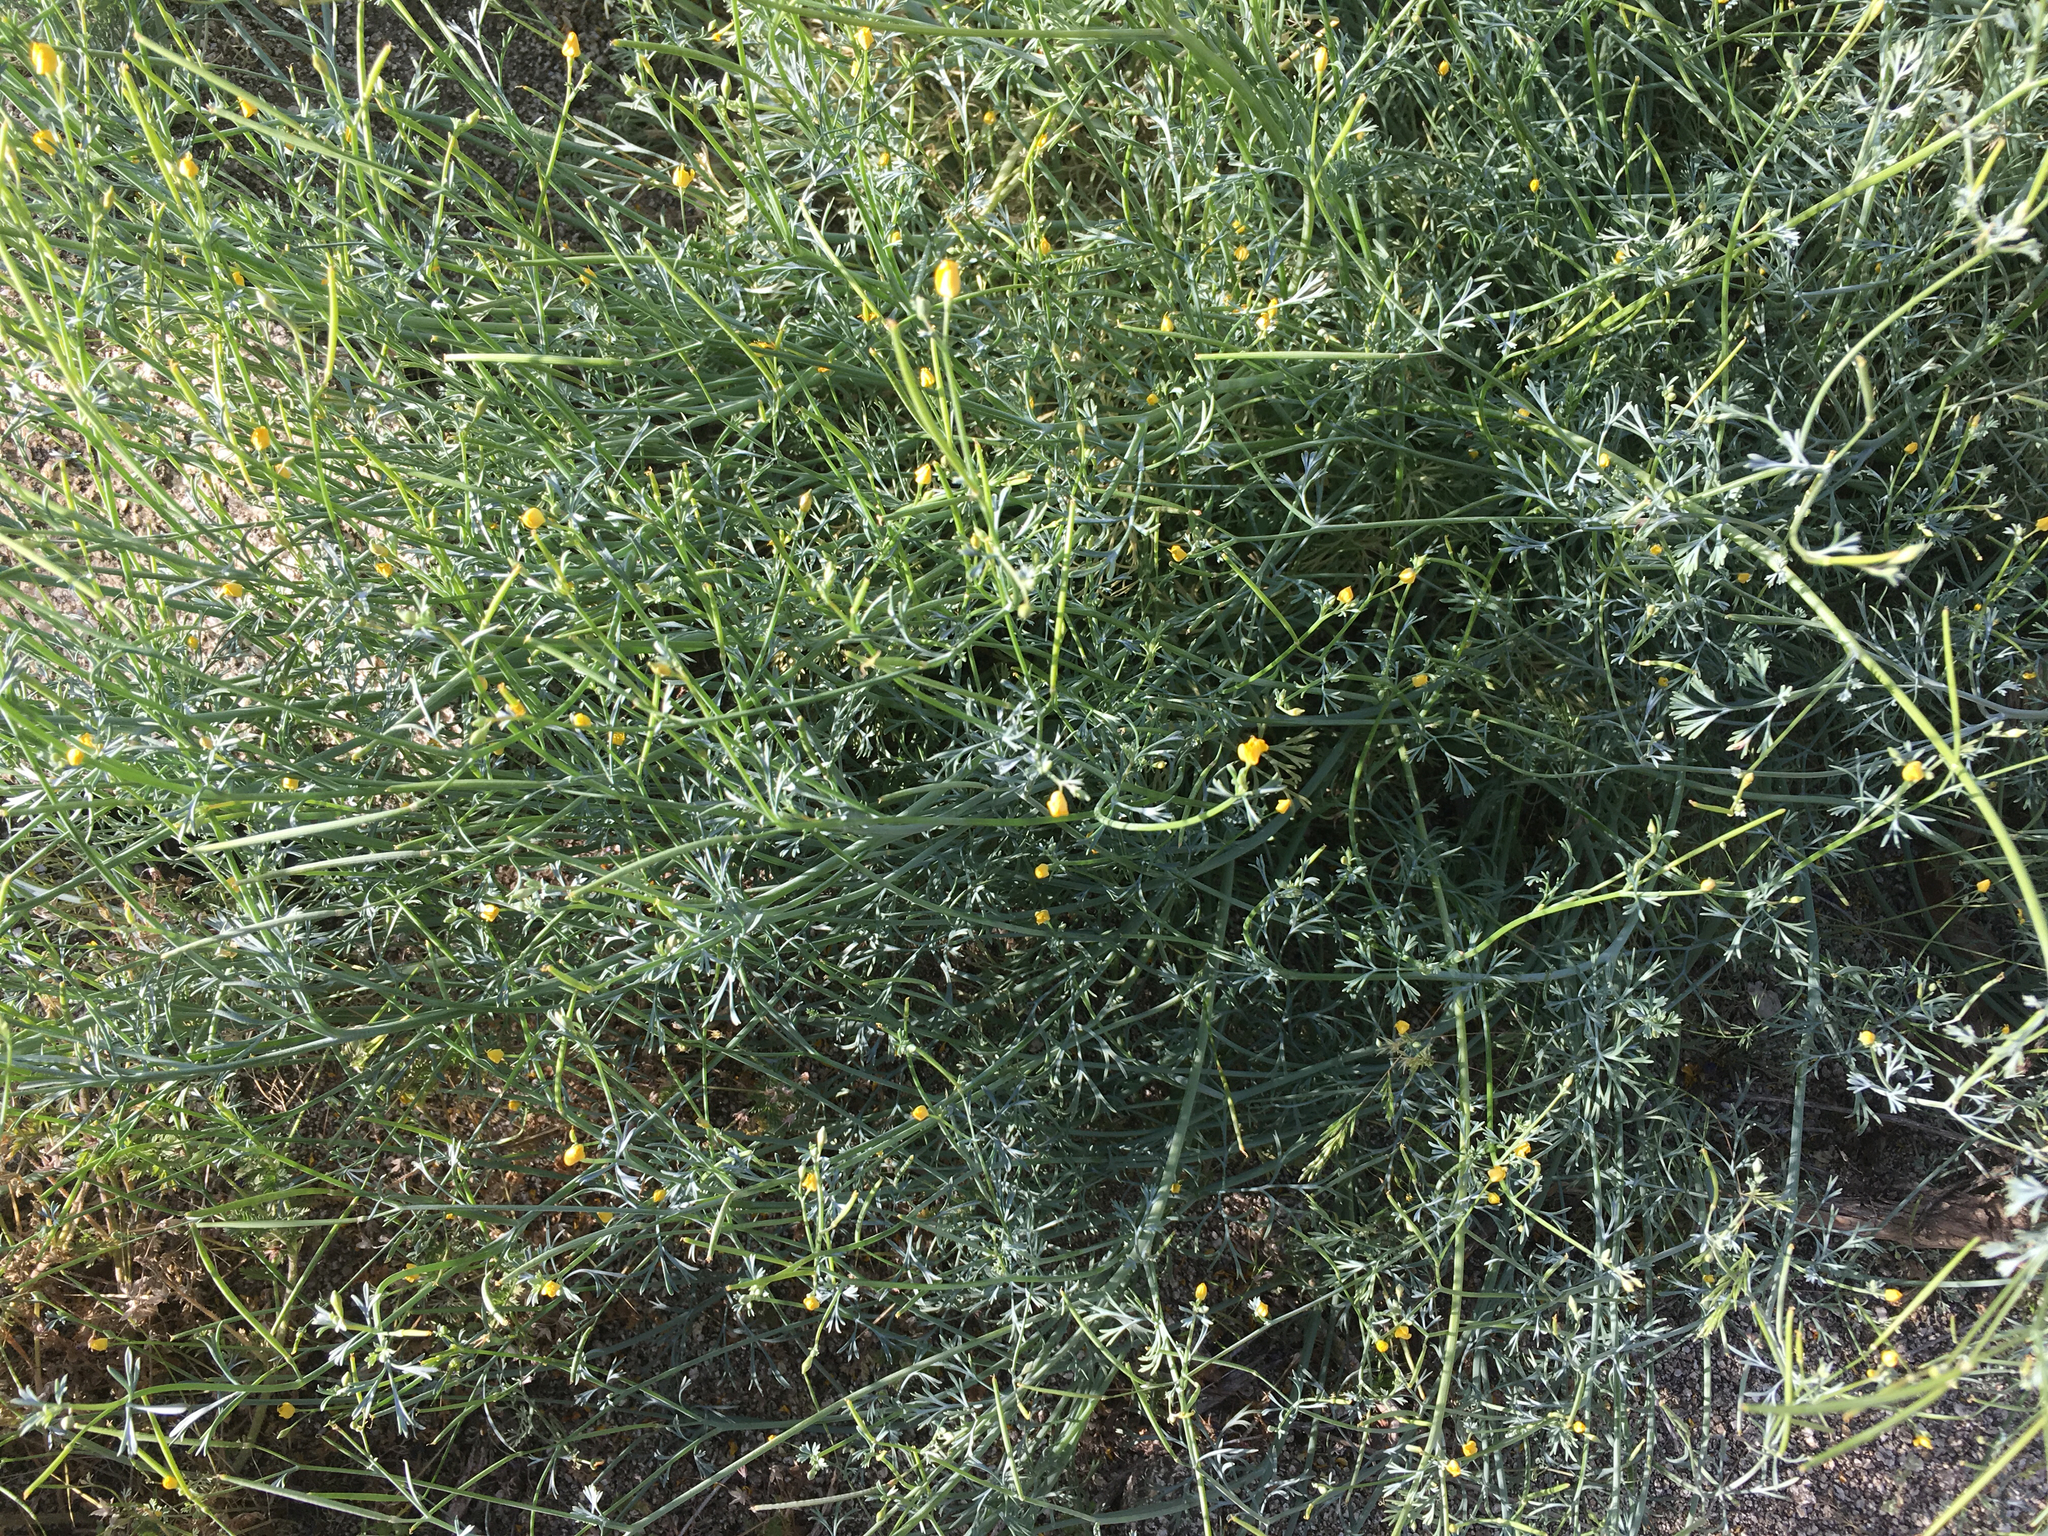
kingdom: Plantae
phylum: Tracheophyta
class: Magnoliopsida
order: Ranunculales
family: Papaveraceae
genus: Eschscholzia
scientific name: Eschscholzia minutiflora
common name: Small-flower california-poppy
